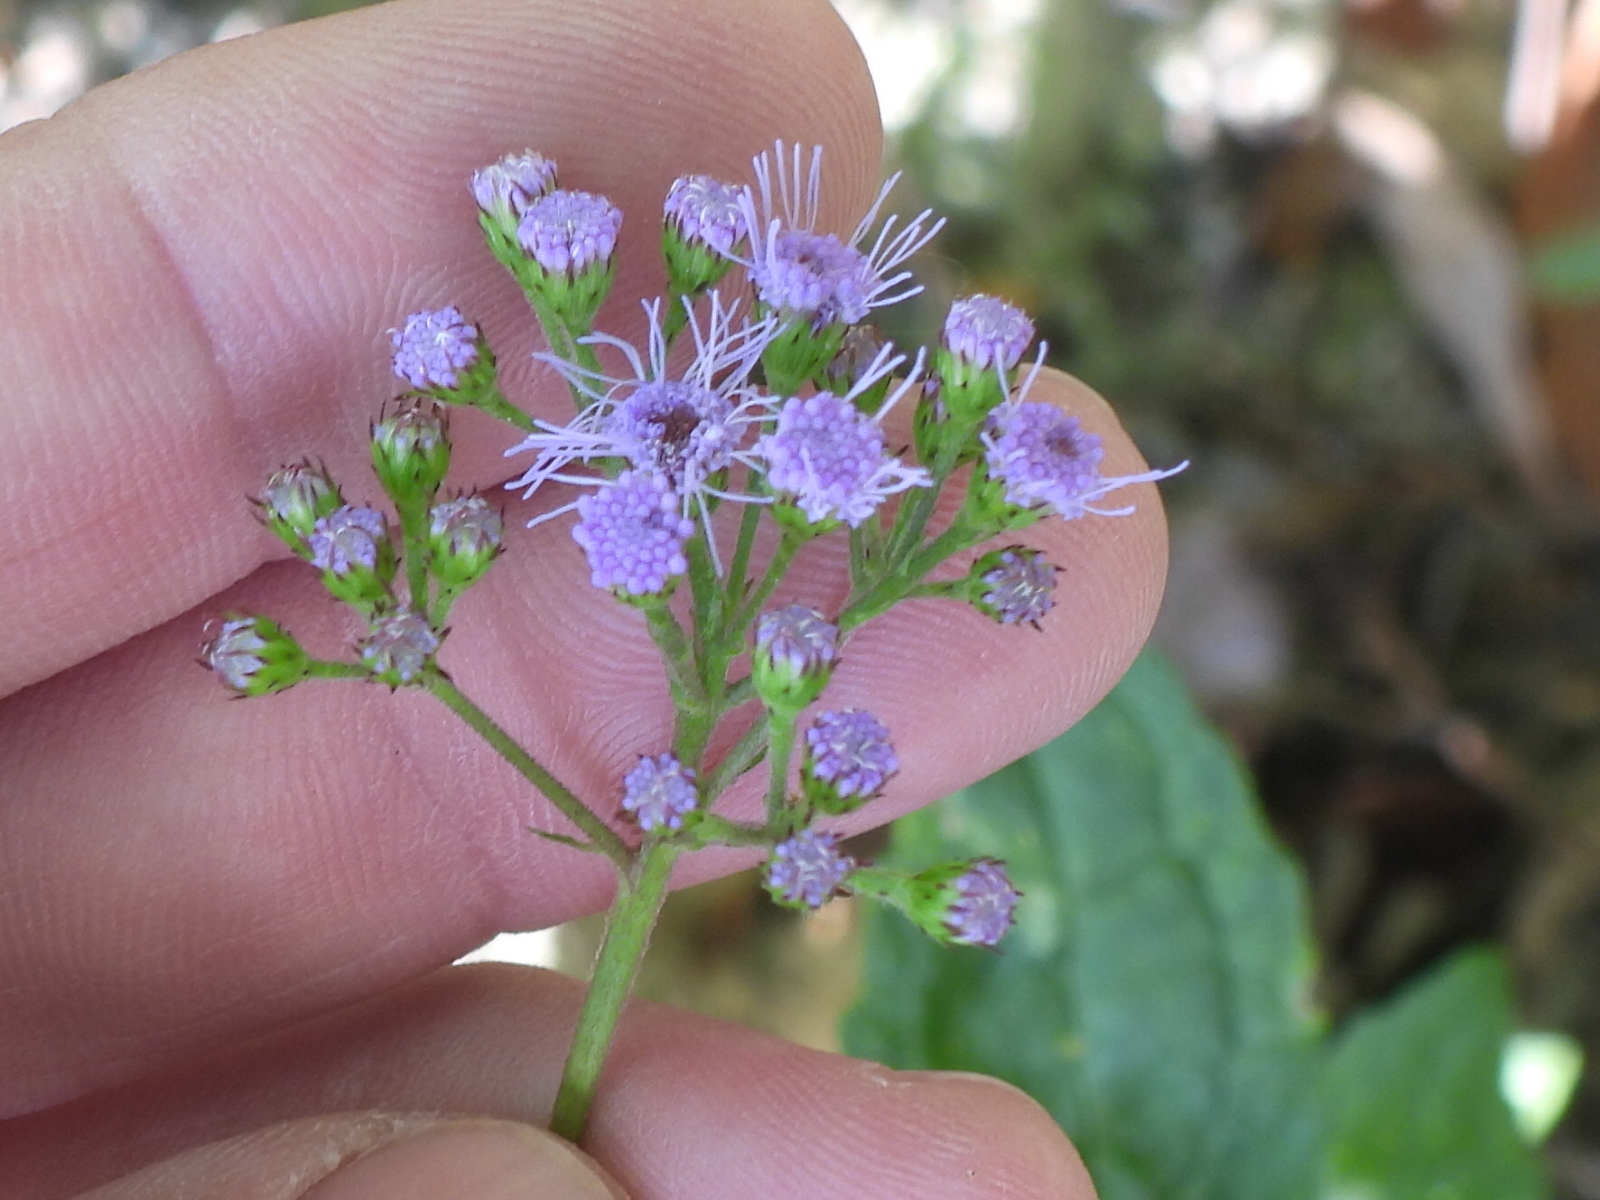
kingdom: Plantae
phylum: Tracheophyta
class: Magnoliopsida
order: Asterales
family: Asteraceae
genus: Conoclinium
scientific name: Conoclinium coelestinum
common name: Blue mistflower
